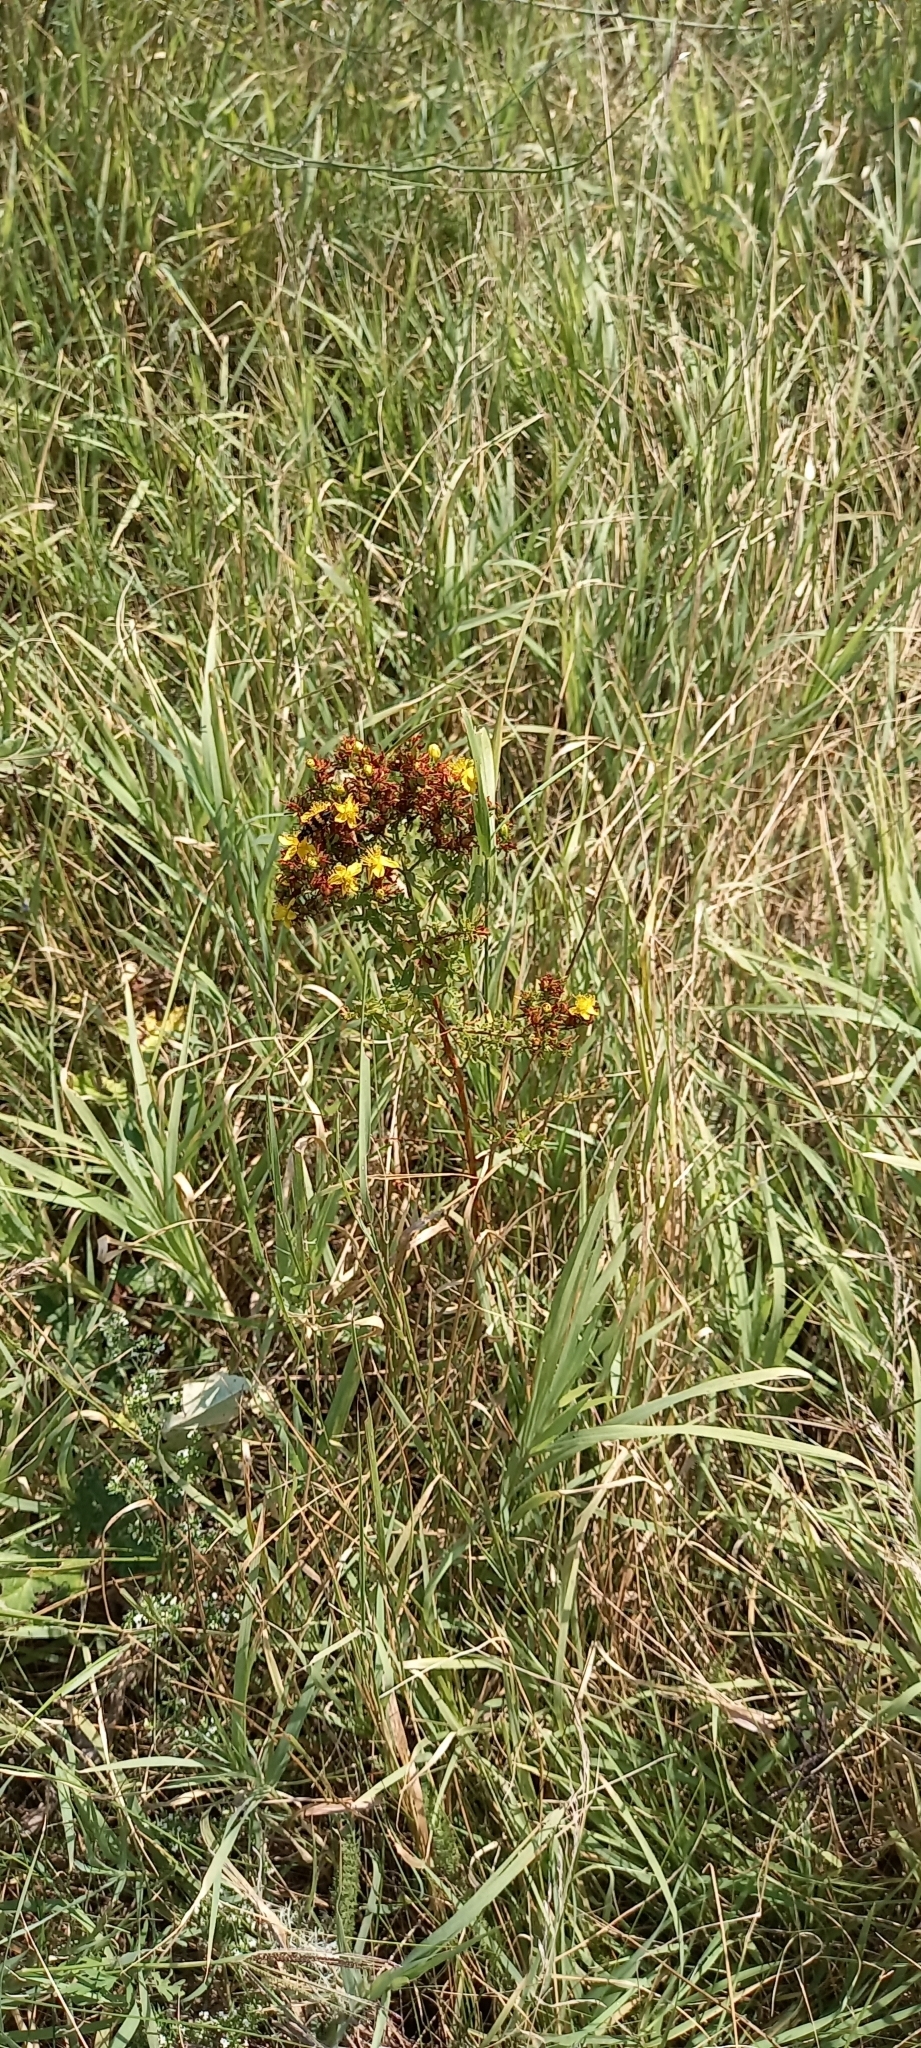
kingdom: Plantae
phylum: Tracheophyta
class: Magnoliopsida
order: Malpighiales
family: Hypericaceae
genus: Hypericum
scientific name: Hypericum perforatum
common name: Common st. johnswort
